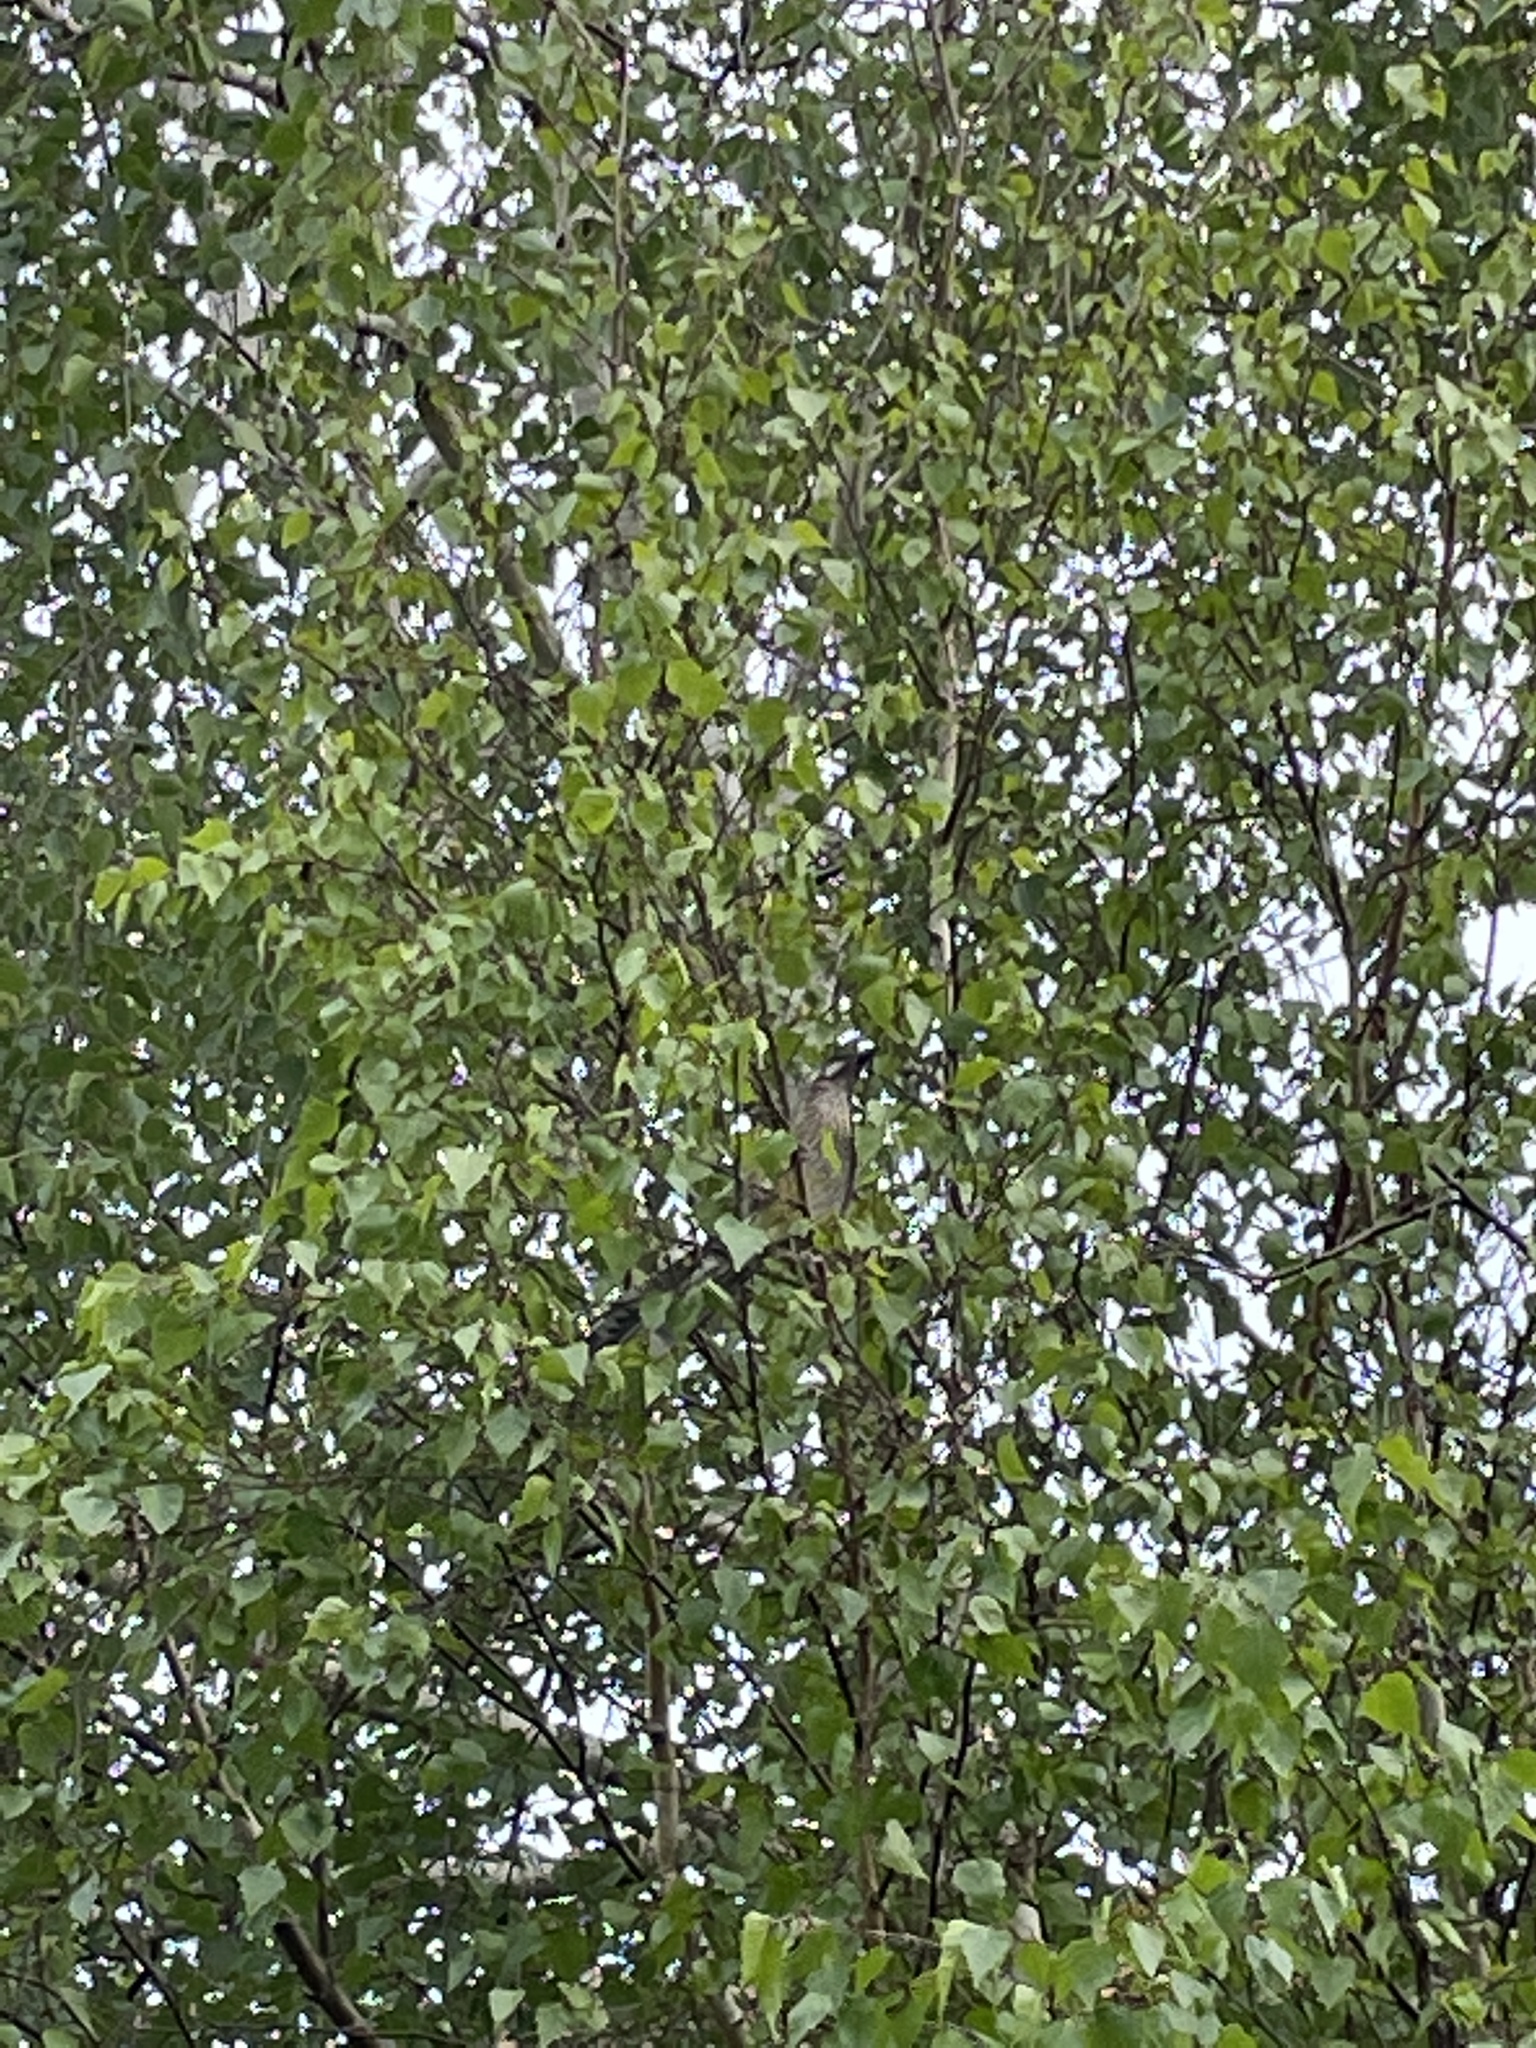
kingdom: Animalia
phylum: Chordata
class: Aves
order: Passeriformes
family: Meliphagidae
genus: Anthochaera
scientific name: Anthochaera carunculata
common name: Red wattlebird
